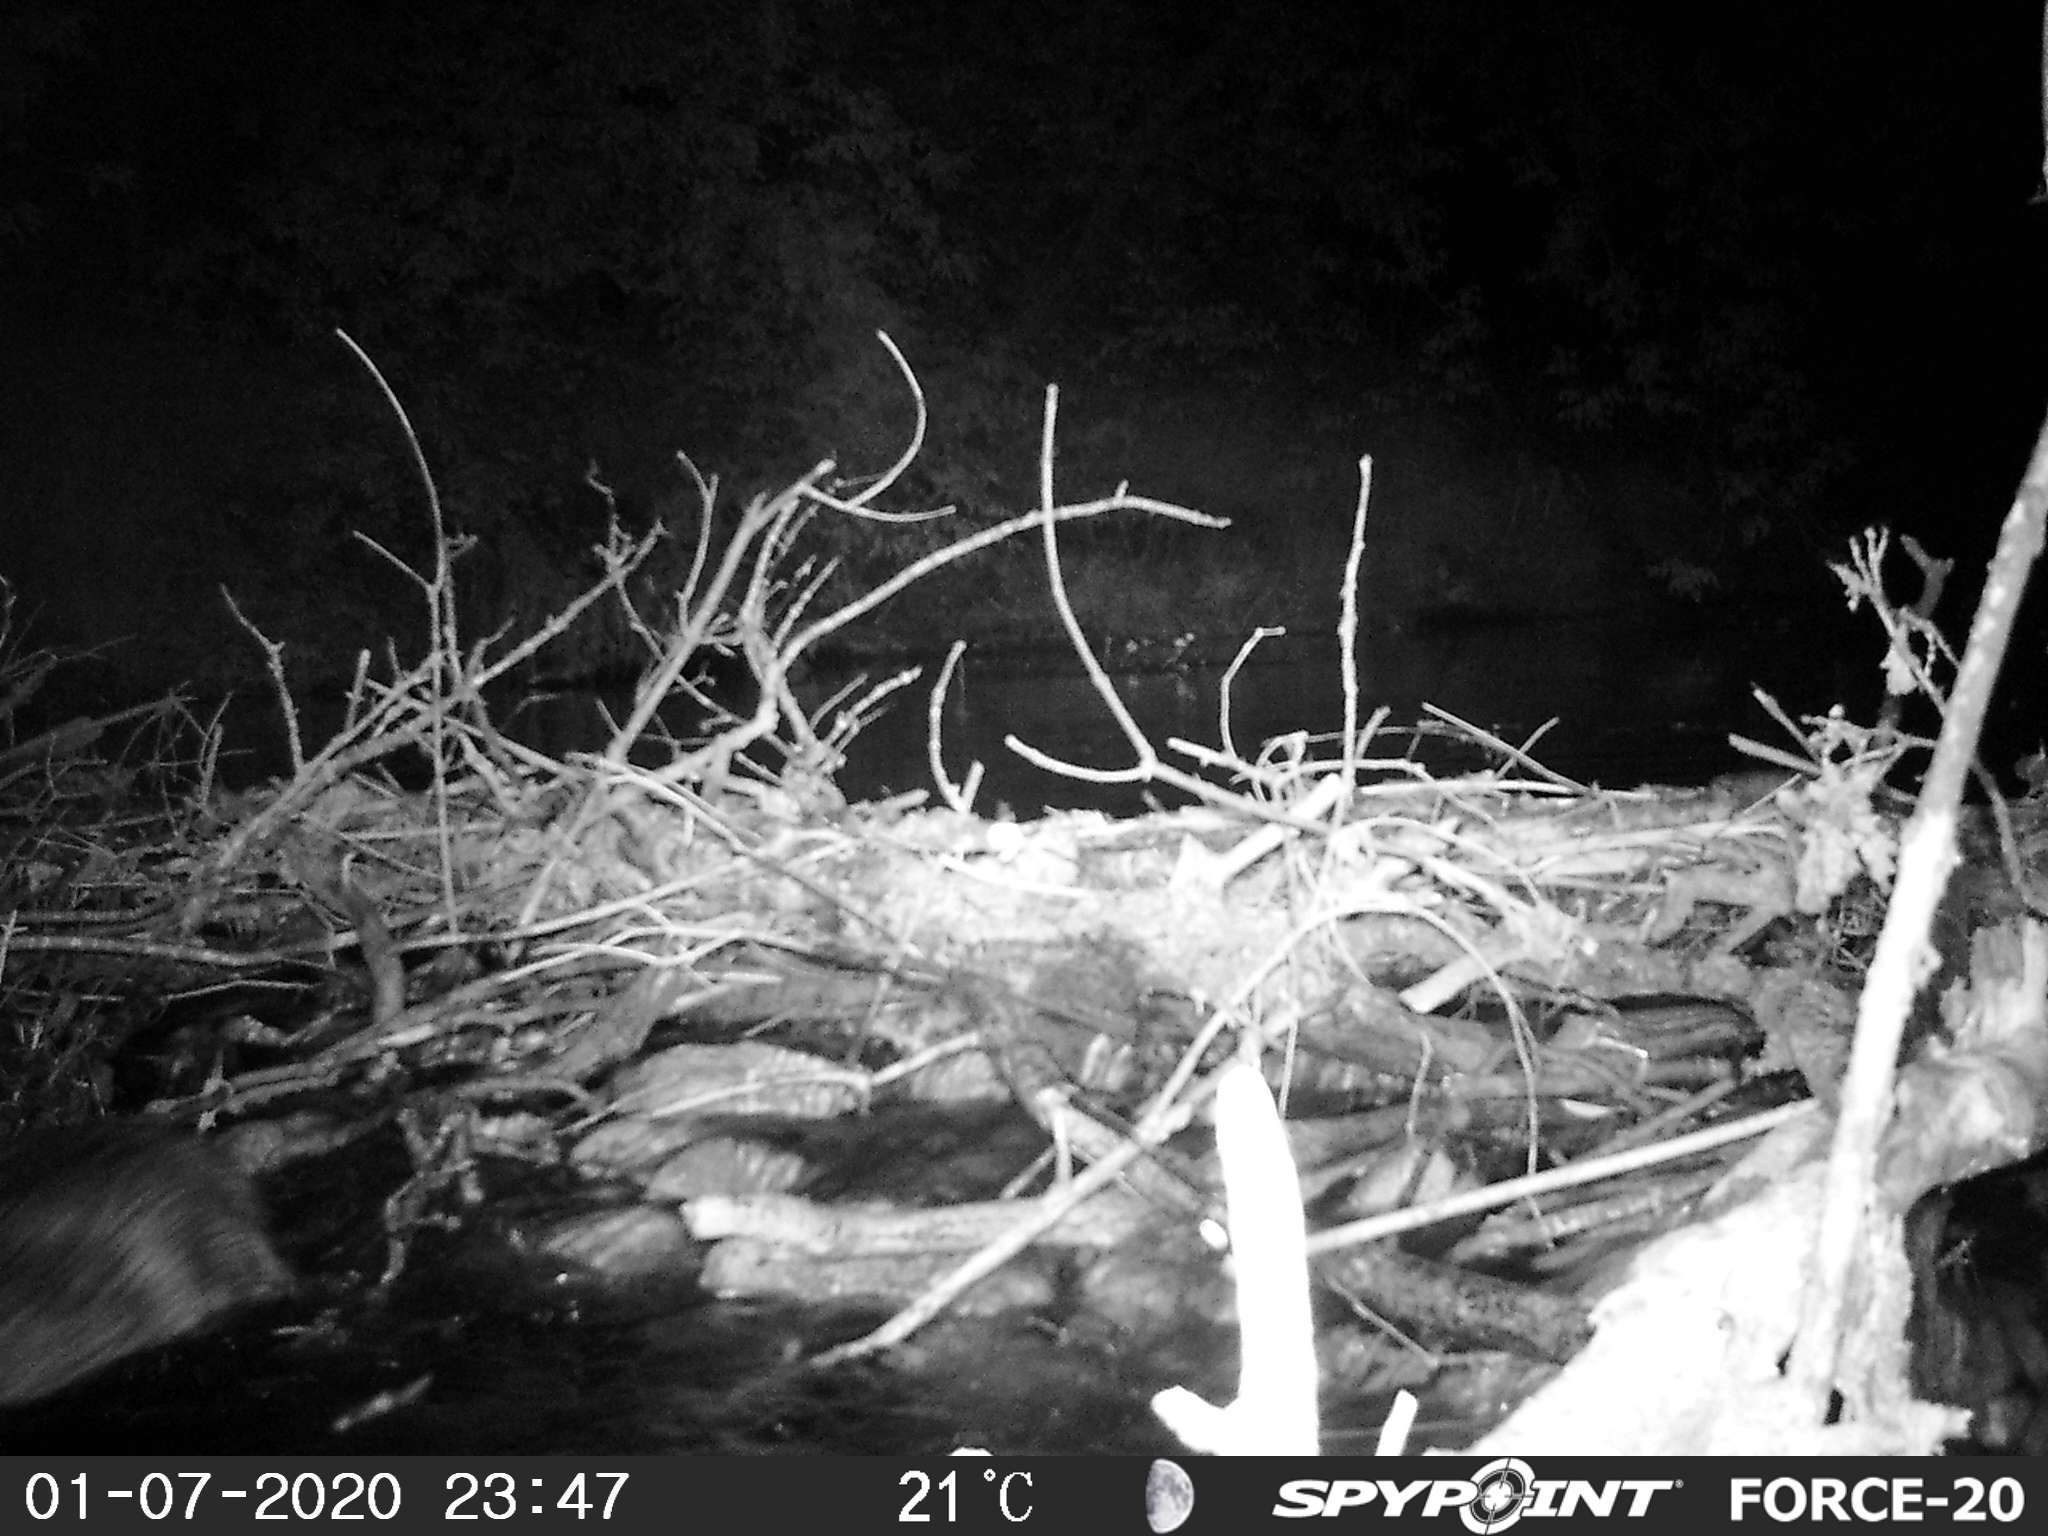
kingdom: Animalia
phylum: Chordata
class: Mammalia
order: Rodentia
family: Cricetidae
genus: Ondatra
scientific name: Ondatra zibethicus
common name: Muskrat
